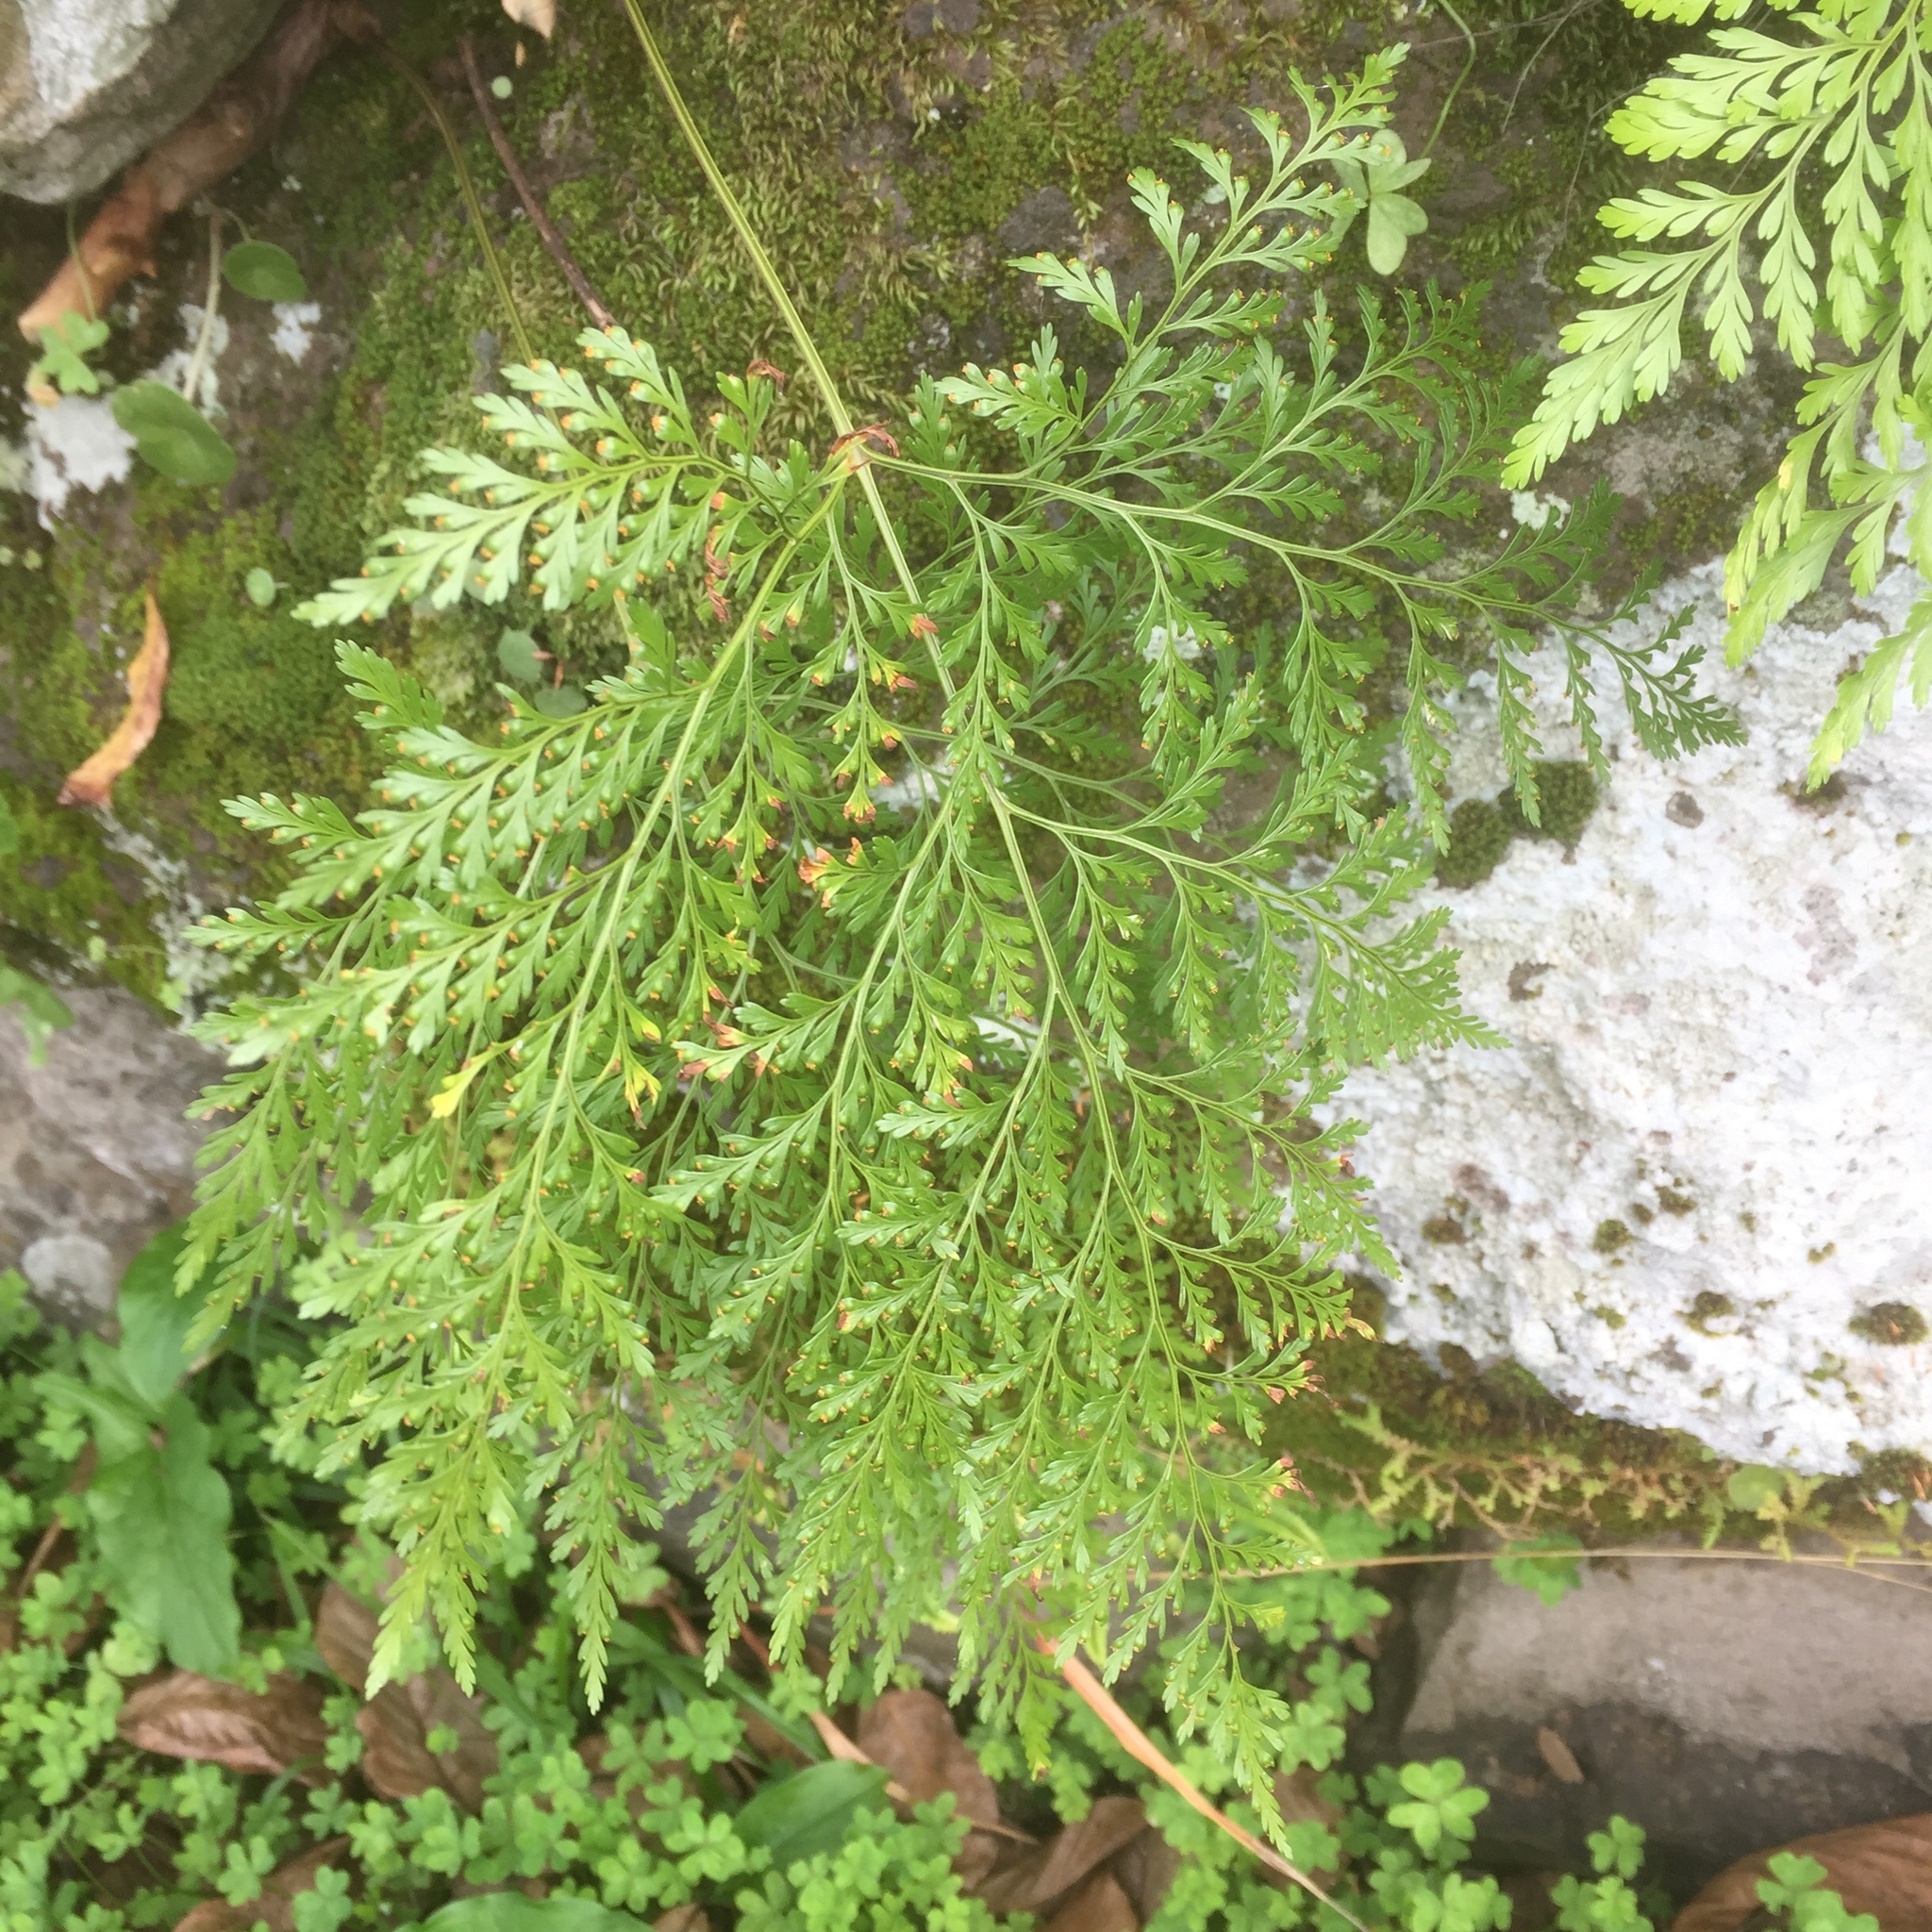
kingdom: Plantae
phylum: Tracheophyta
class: Polypodiopsida
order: Polypodiales
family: Davalliaceae
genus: Davallia
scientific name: Davallia canariensis
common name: Hare's-foot fern
